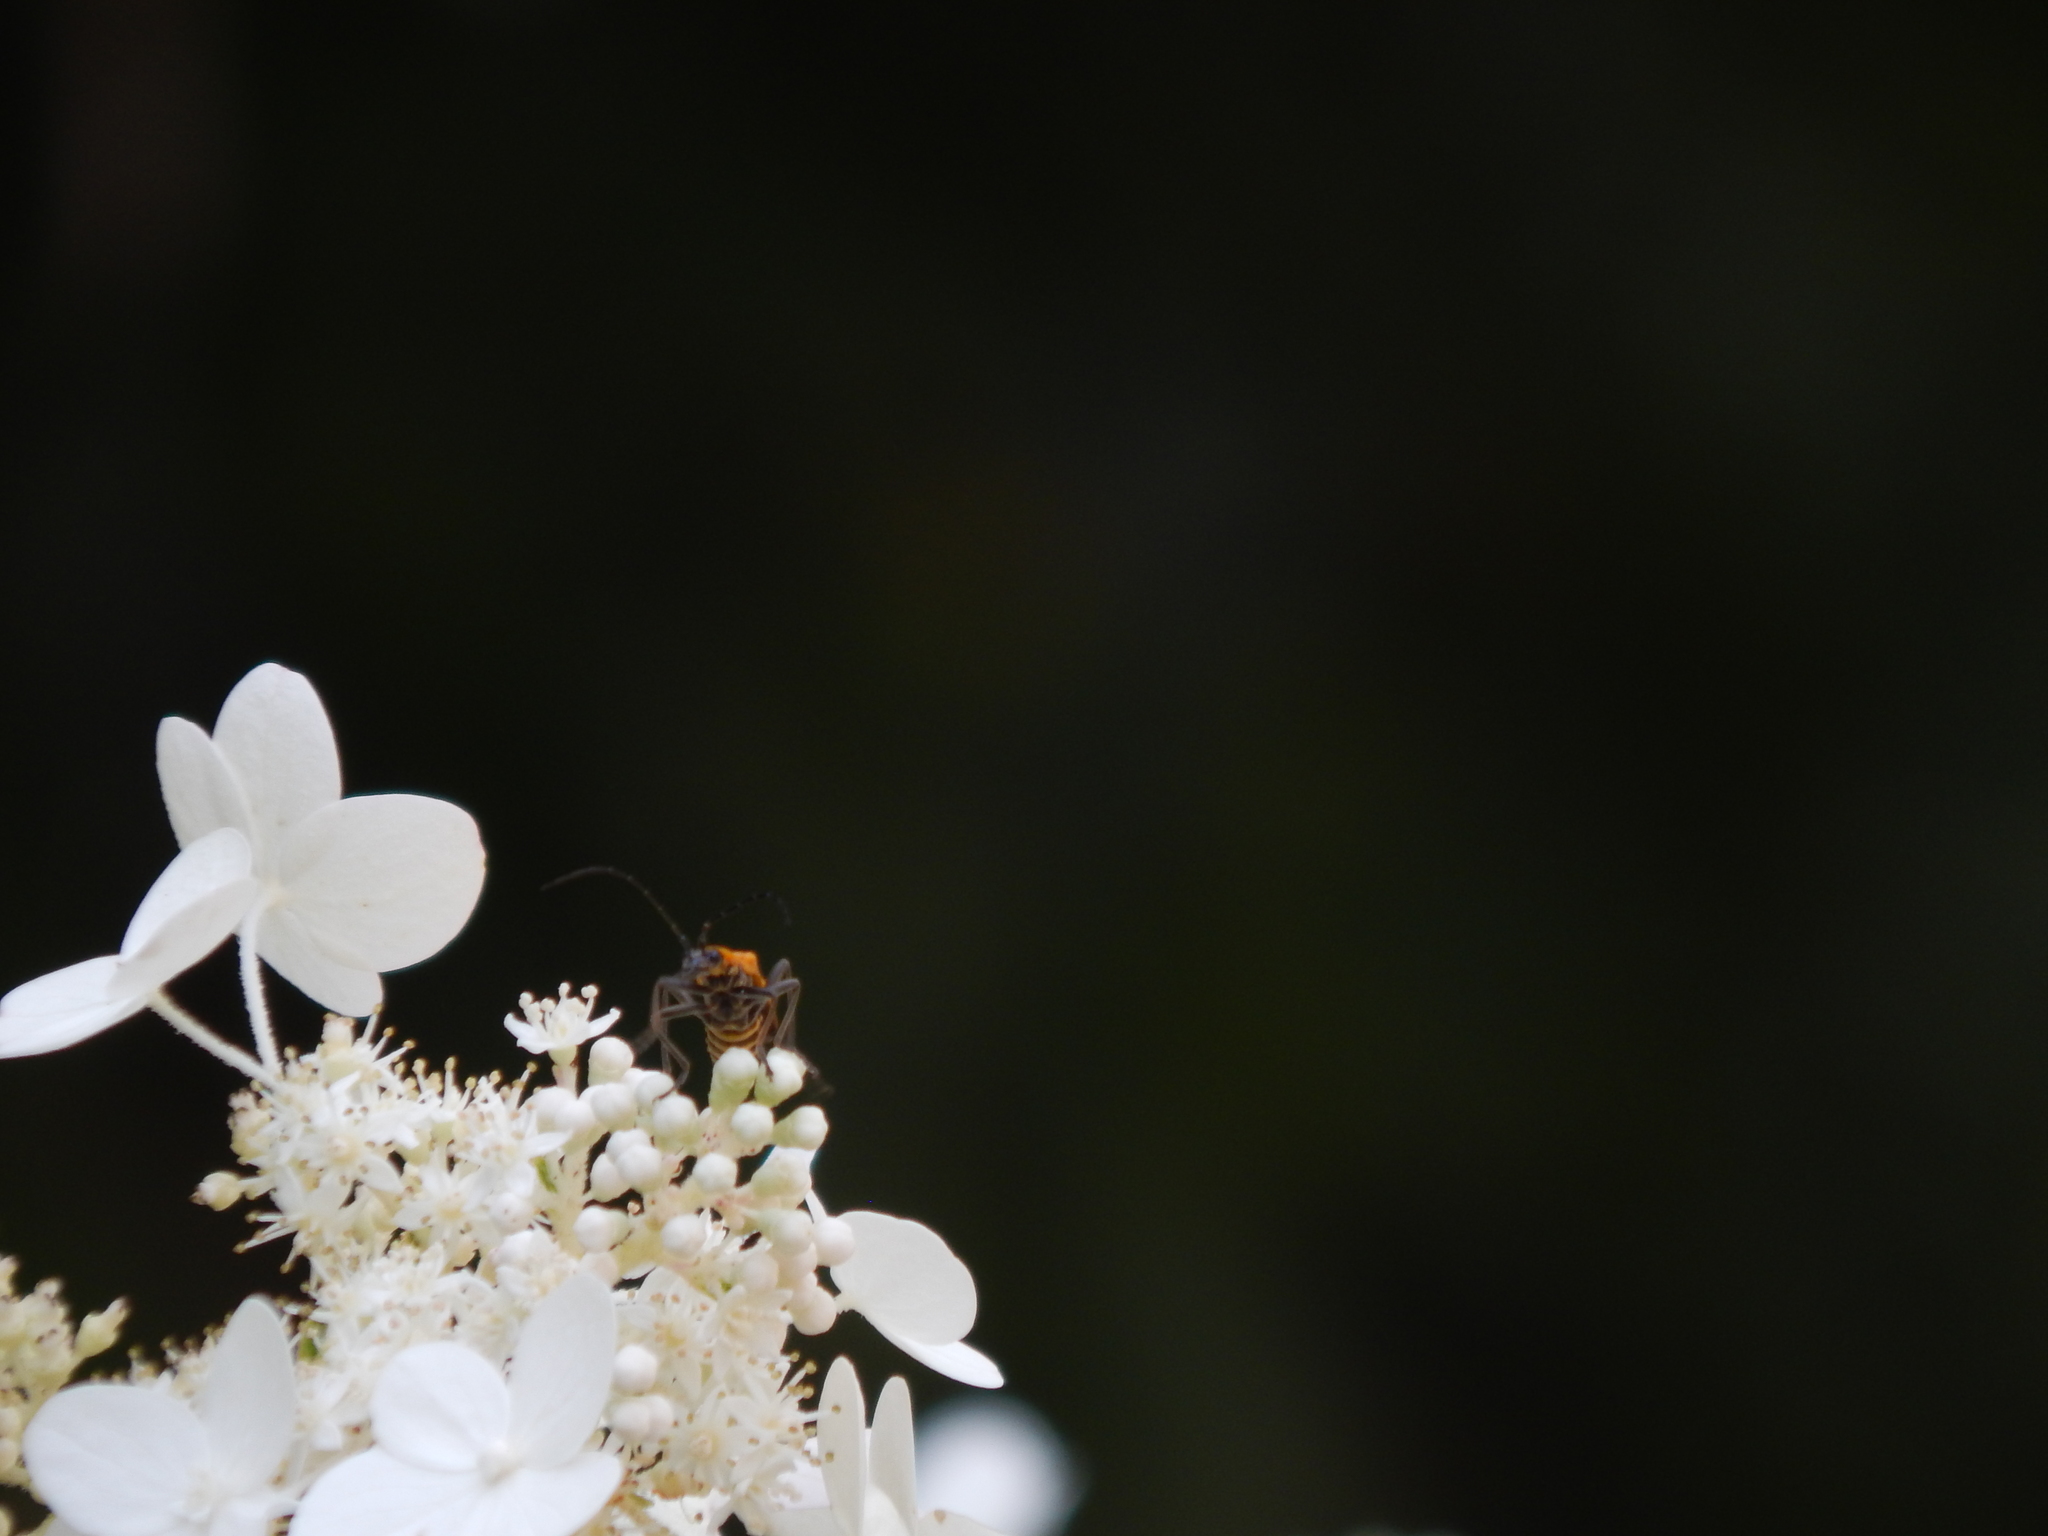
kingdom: Animalia
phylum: Arthropoda
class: Insecta
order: Coleoptera
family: Cantharidae
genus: Chauliognathus
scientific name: Chauliognathus pensylvanicus
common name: Goldenrod soldier beetle
